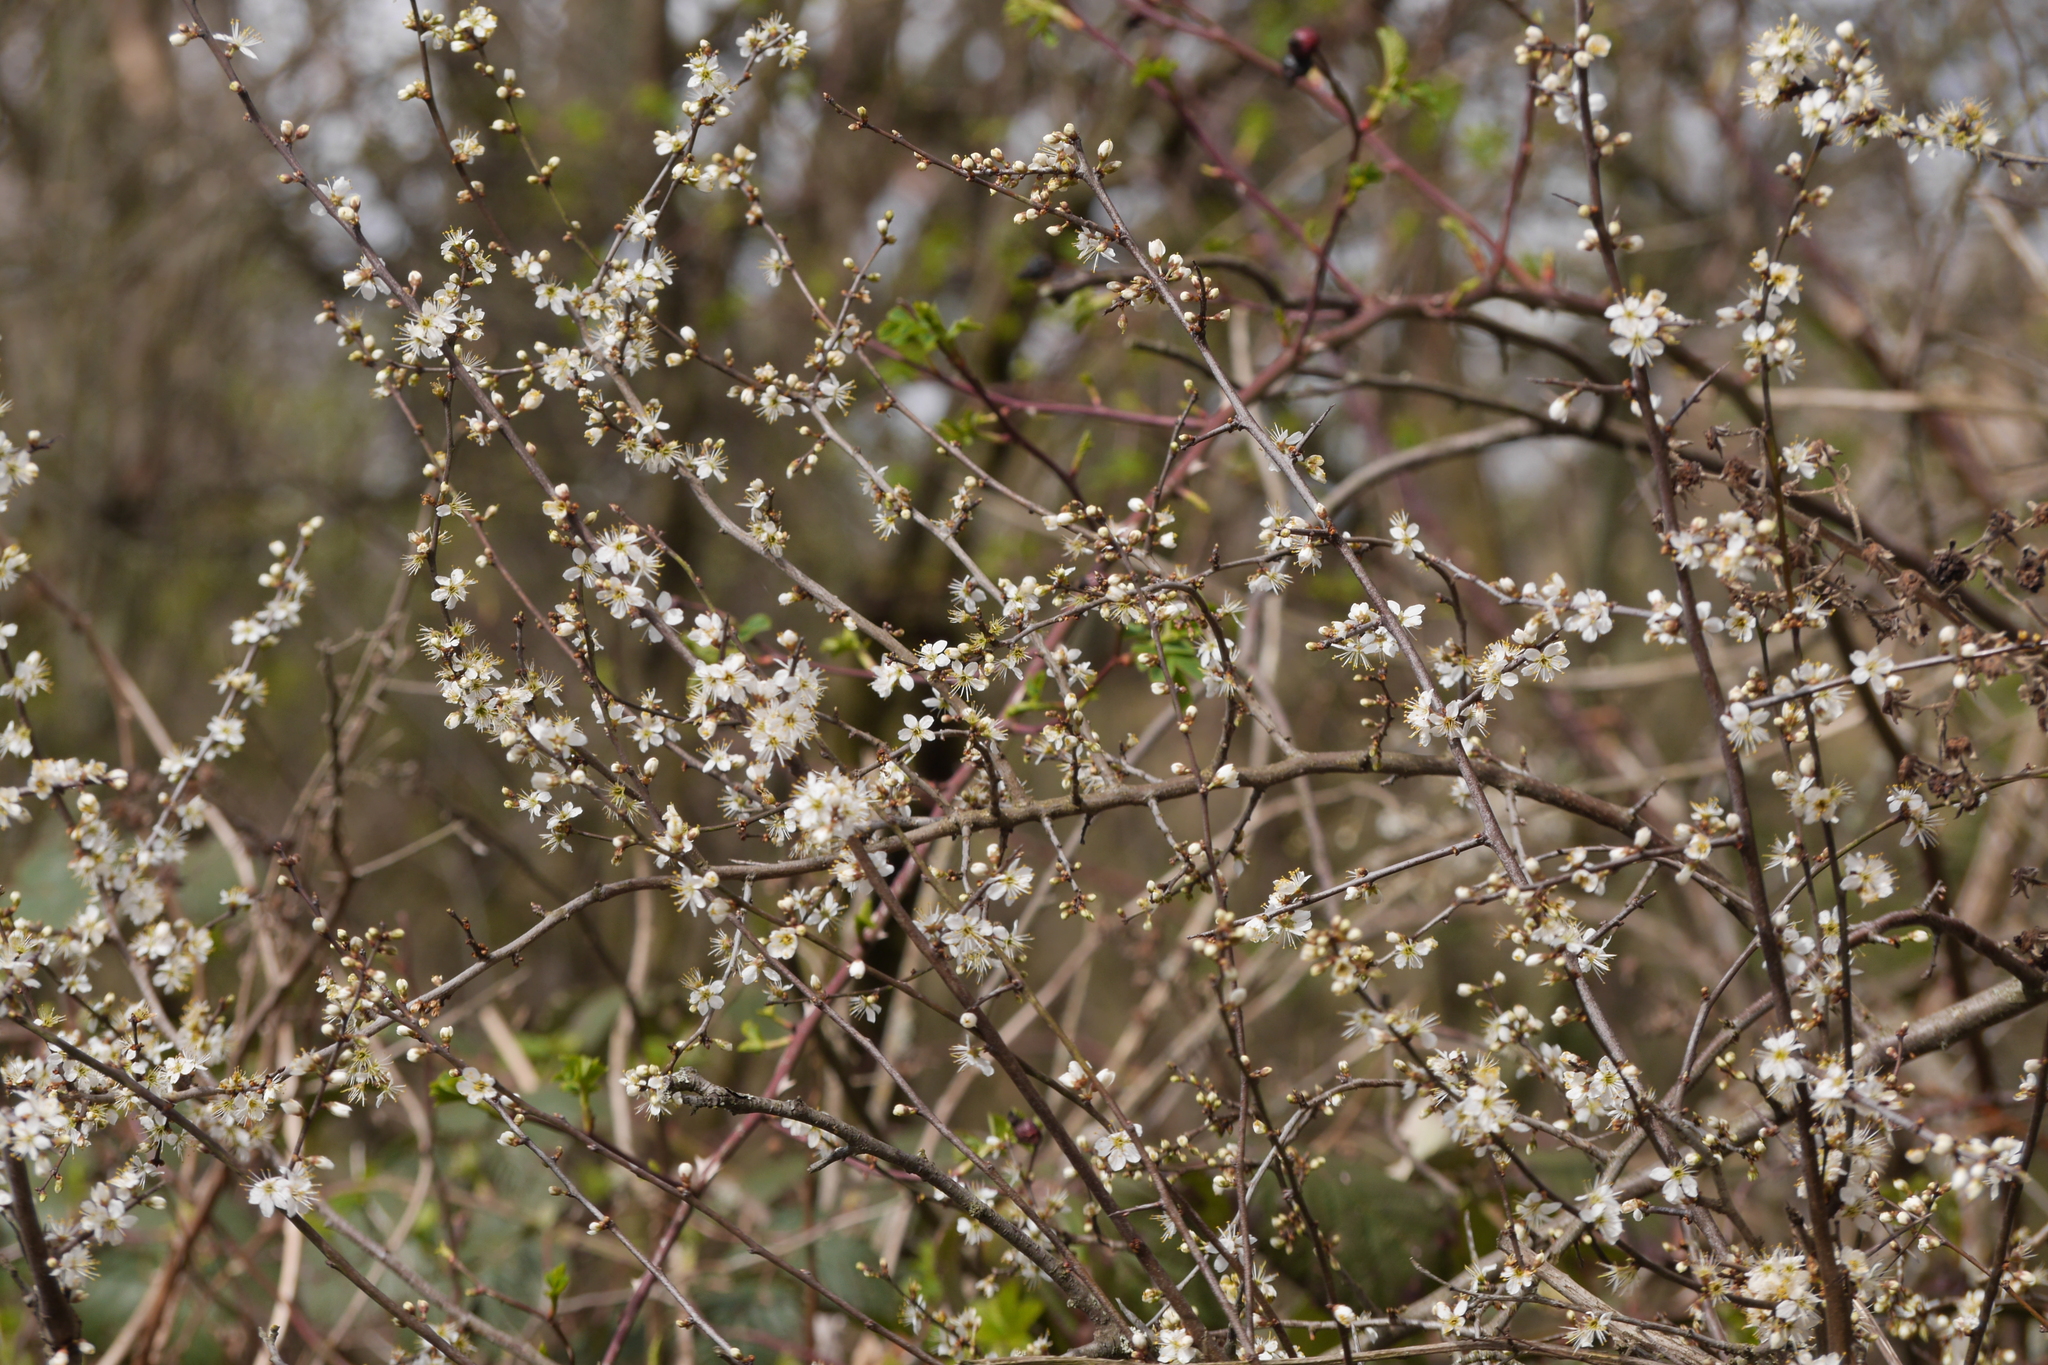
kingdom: Plantae
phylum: Tracheophyta
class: Magnoliopsida
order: Rosales
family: Rosaceae
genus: Prunus
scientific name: Prunus spinosa
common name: Blackthorn
